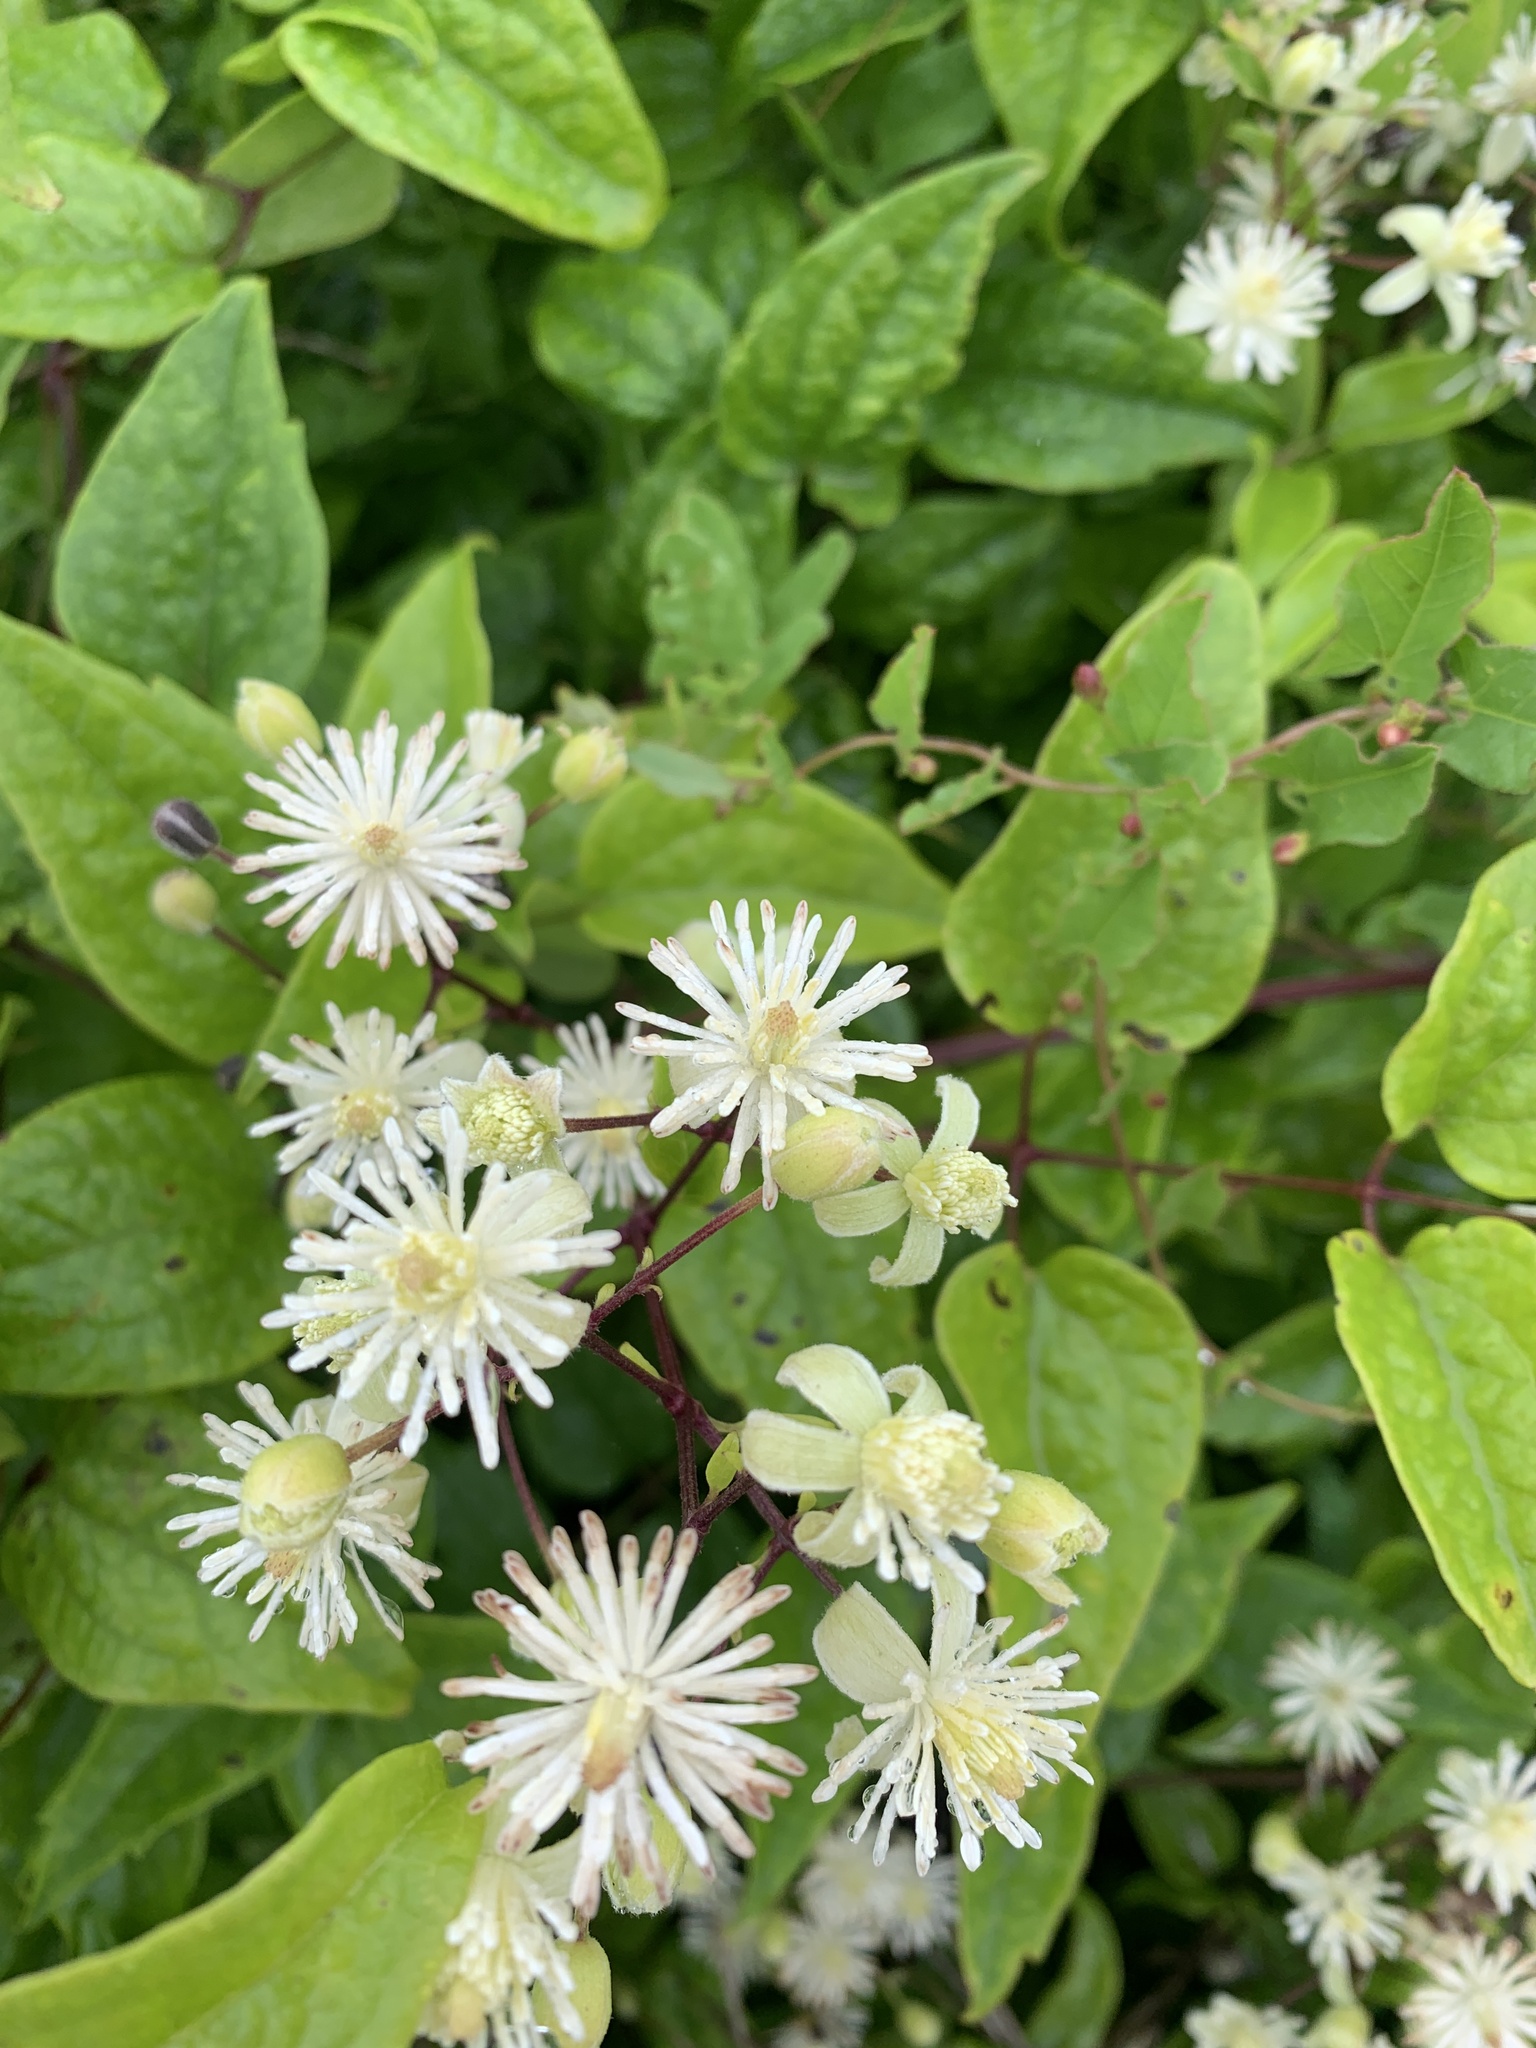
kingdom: Plantae
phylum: Tracheophyta
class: Magnoliopsida
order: Ranunculales
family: Ranunculaceae
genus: Clematis
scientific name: Clematis vitalba
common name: Evergreen clematis
